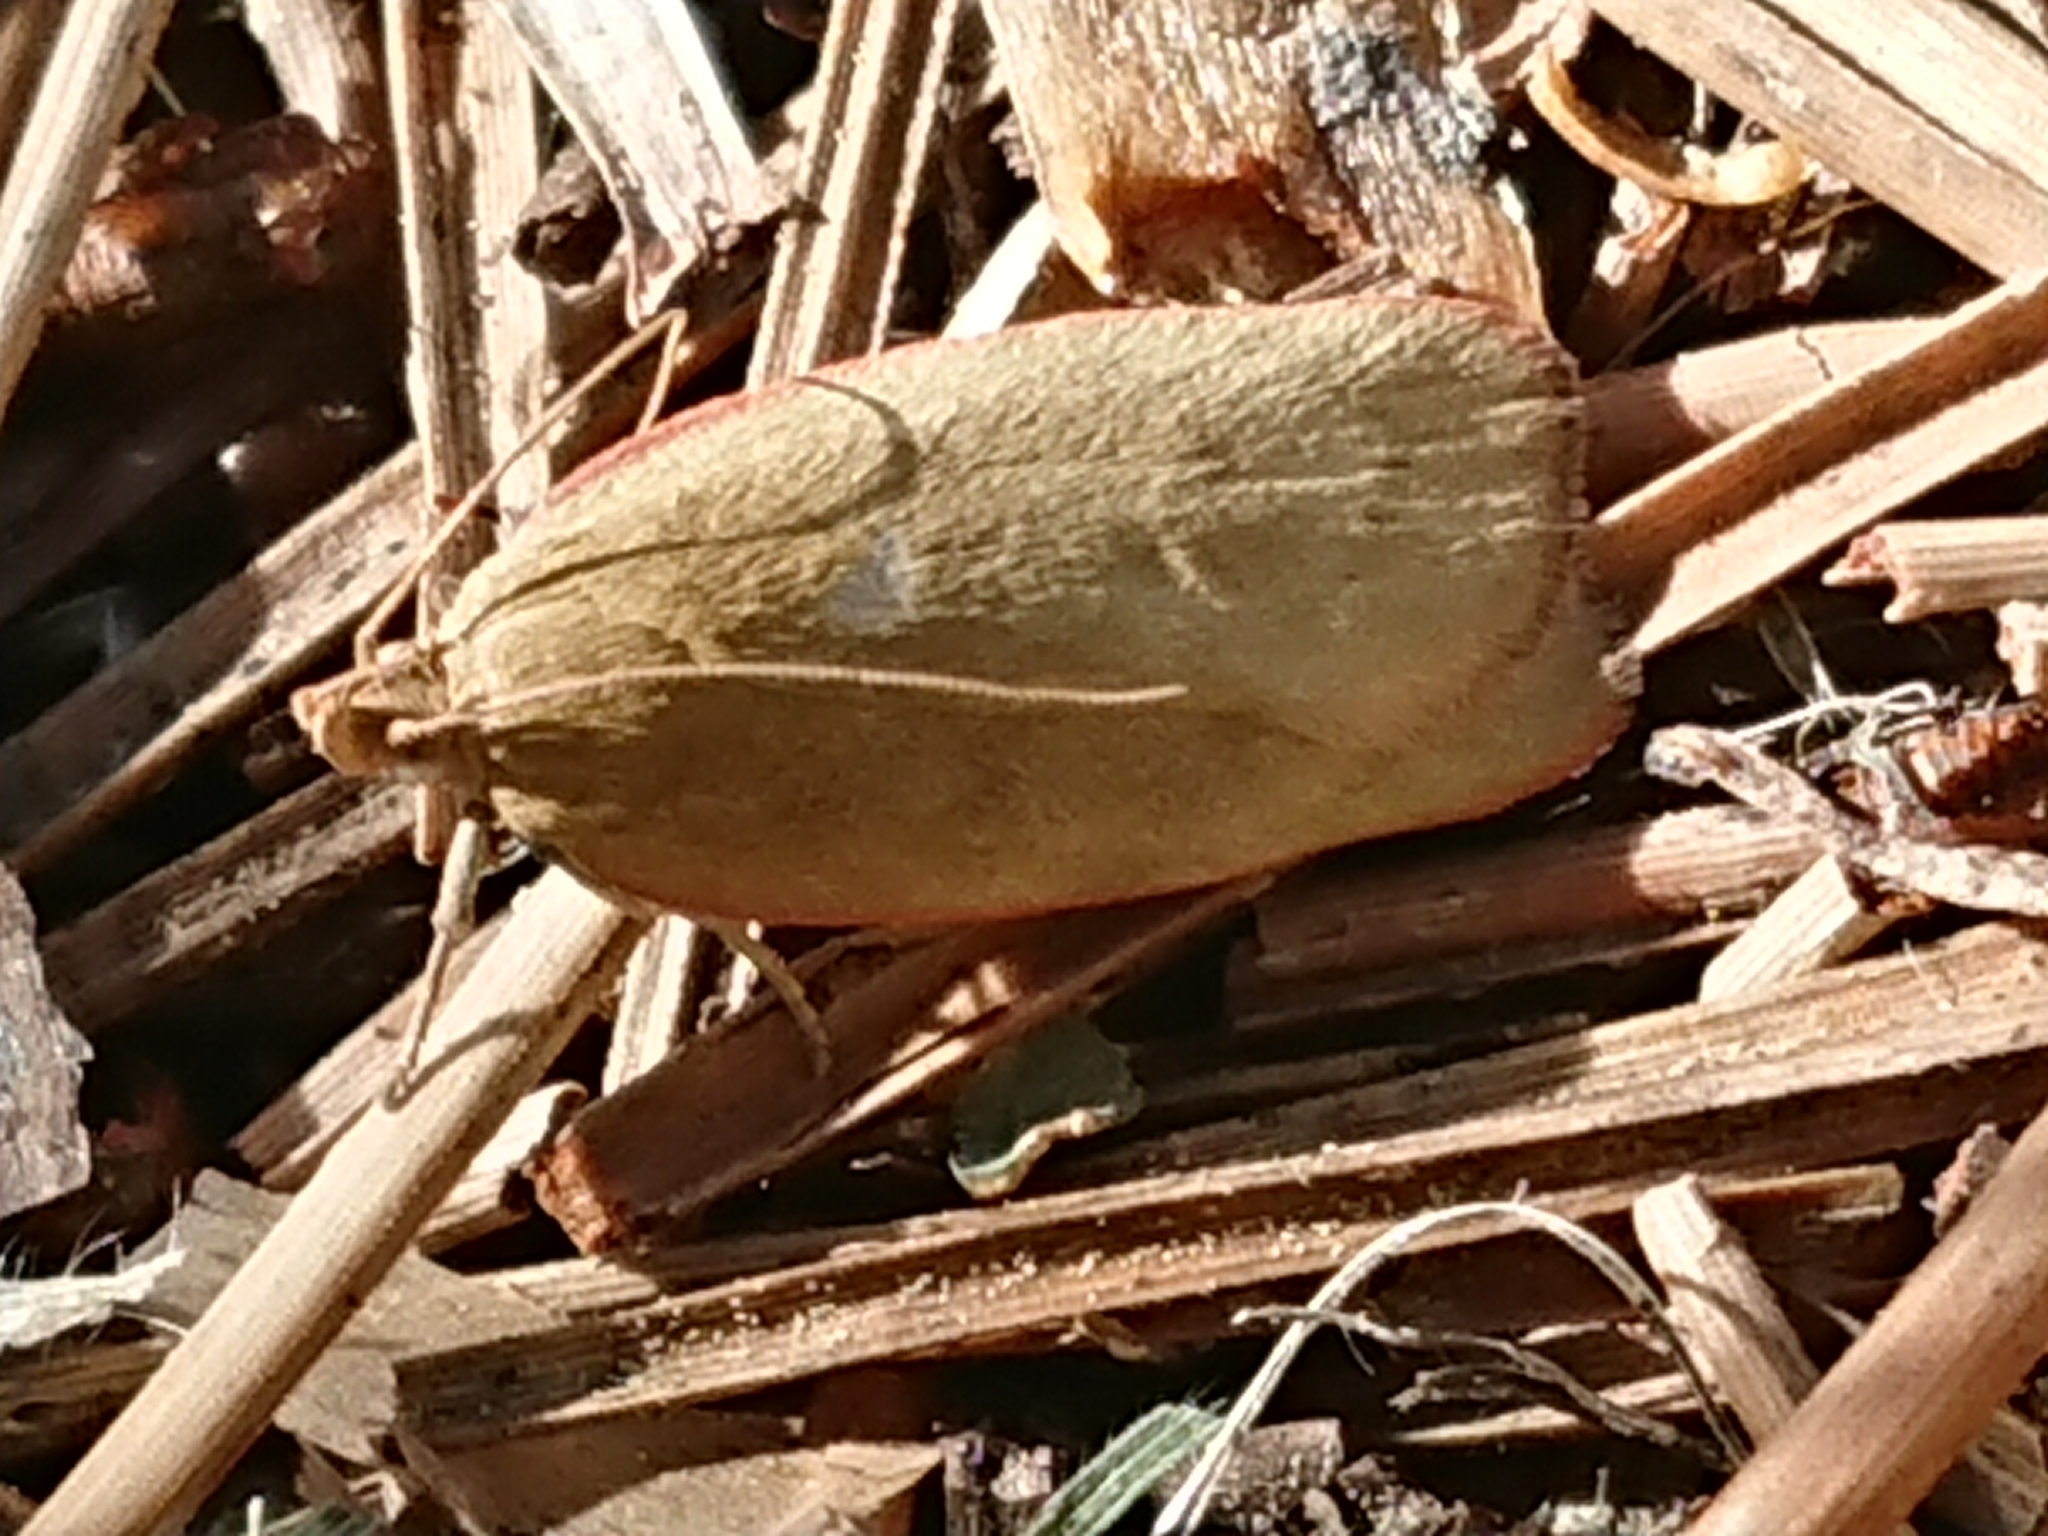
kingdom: Animalia
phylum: Arthropoda
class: Insecta
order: Lepidoptera
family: Depressariidae
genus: Phaeosaces
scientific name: Phaeosaces coarctatella
